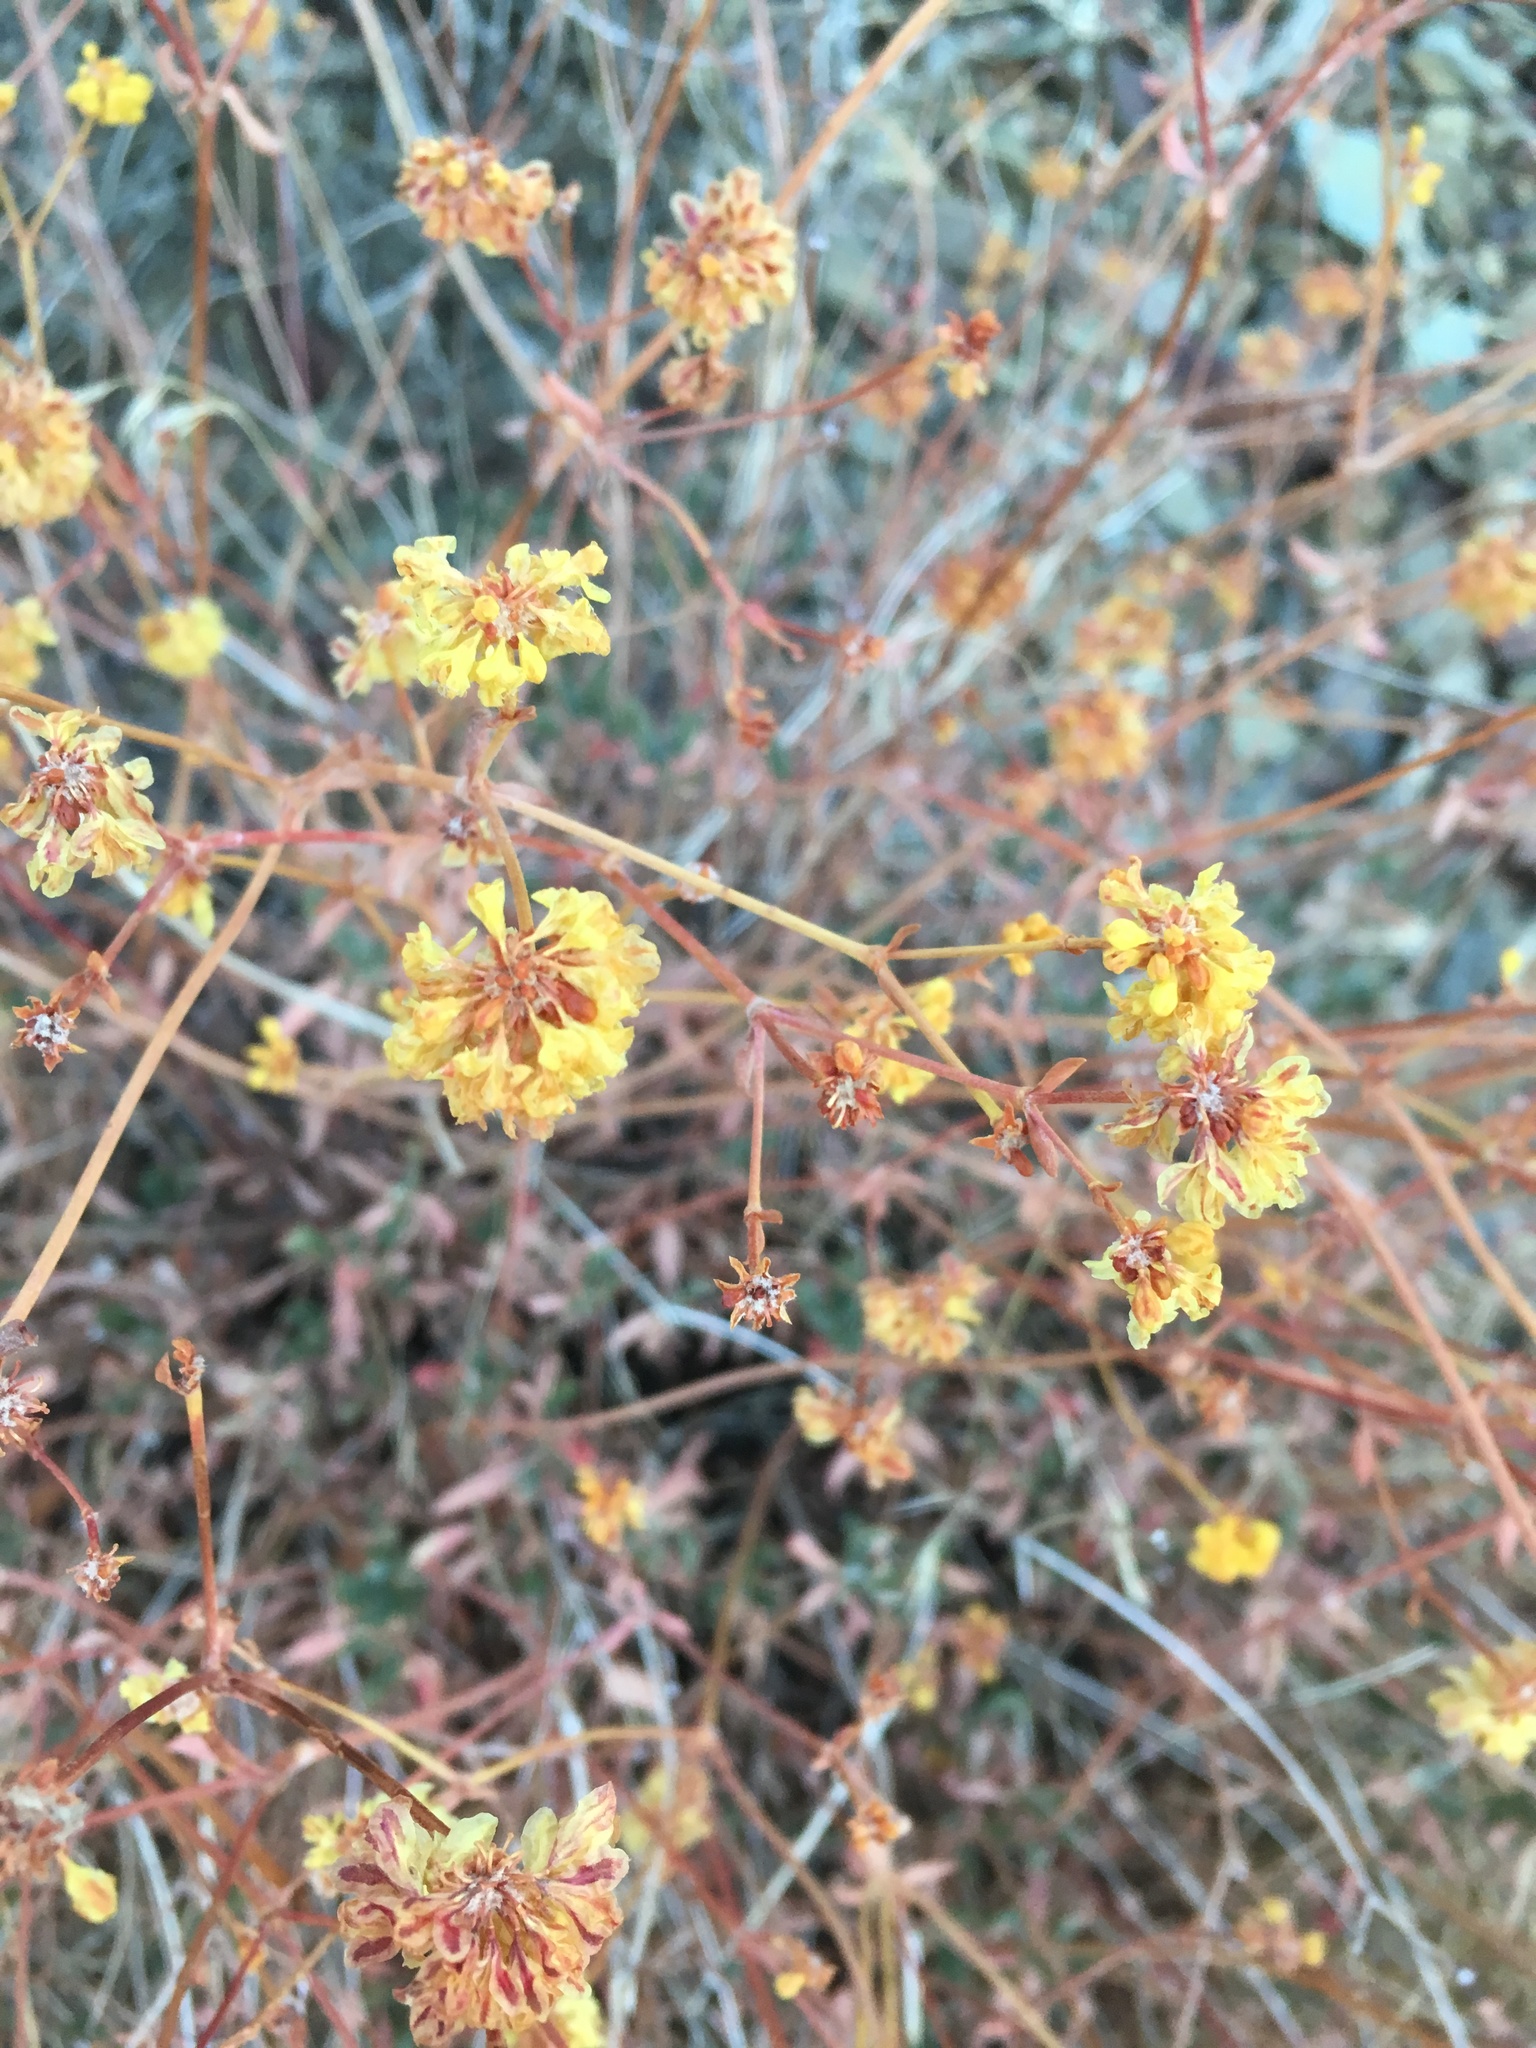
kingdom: Plantae
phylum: Tracheophyta
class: Magnoliopsida
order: Caryophyllales
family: Polygonaceae
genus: Eriogonum
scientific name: Eriogonum umbellatum
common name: Sulfur-buckwheat
